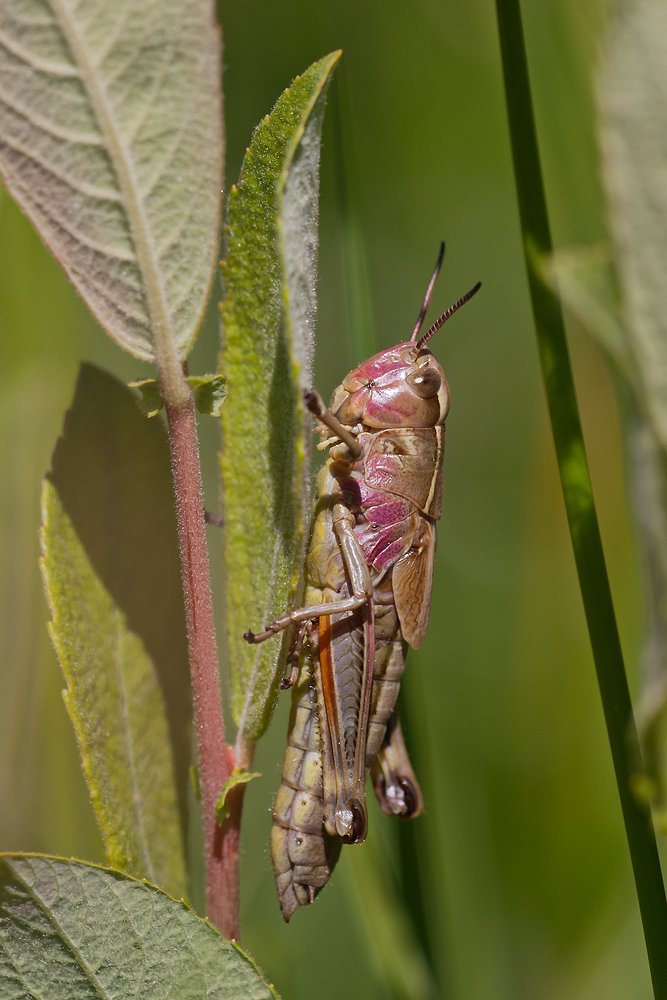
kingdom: Animalia
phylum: Arthropoda
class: Insecta
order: Orthoptera
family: Acrididae
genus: Stethophyma
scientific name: Stethophyma grossum
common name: Large marsh grasshopper
